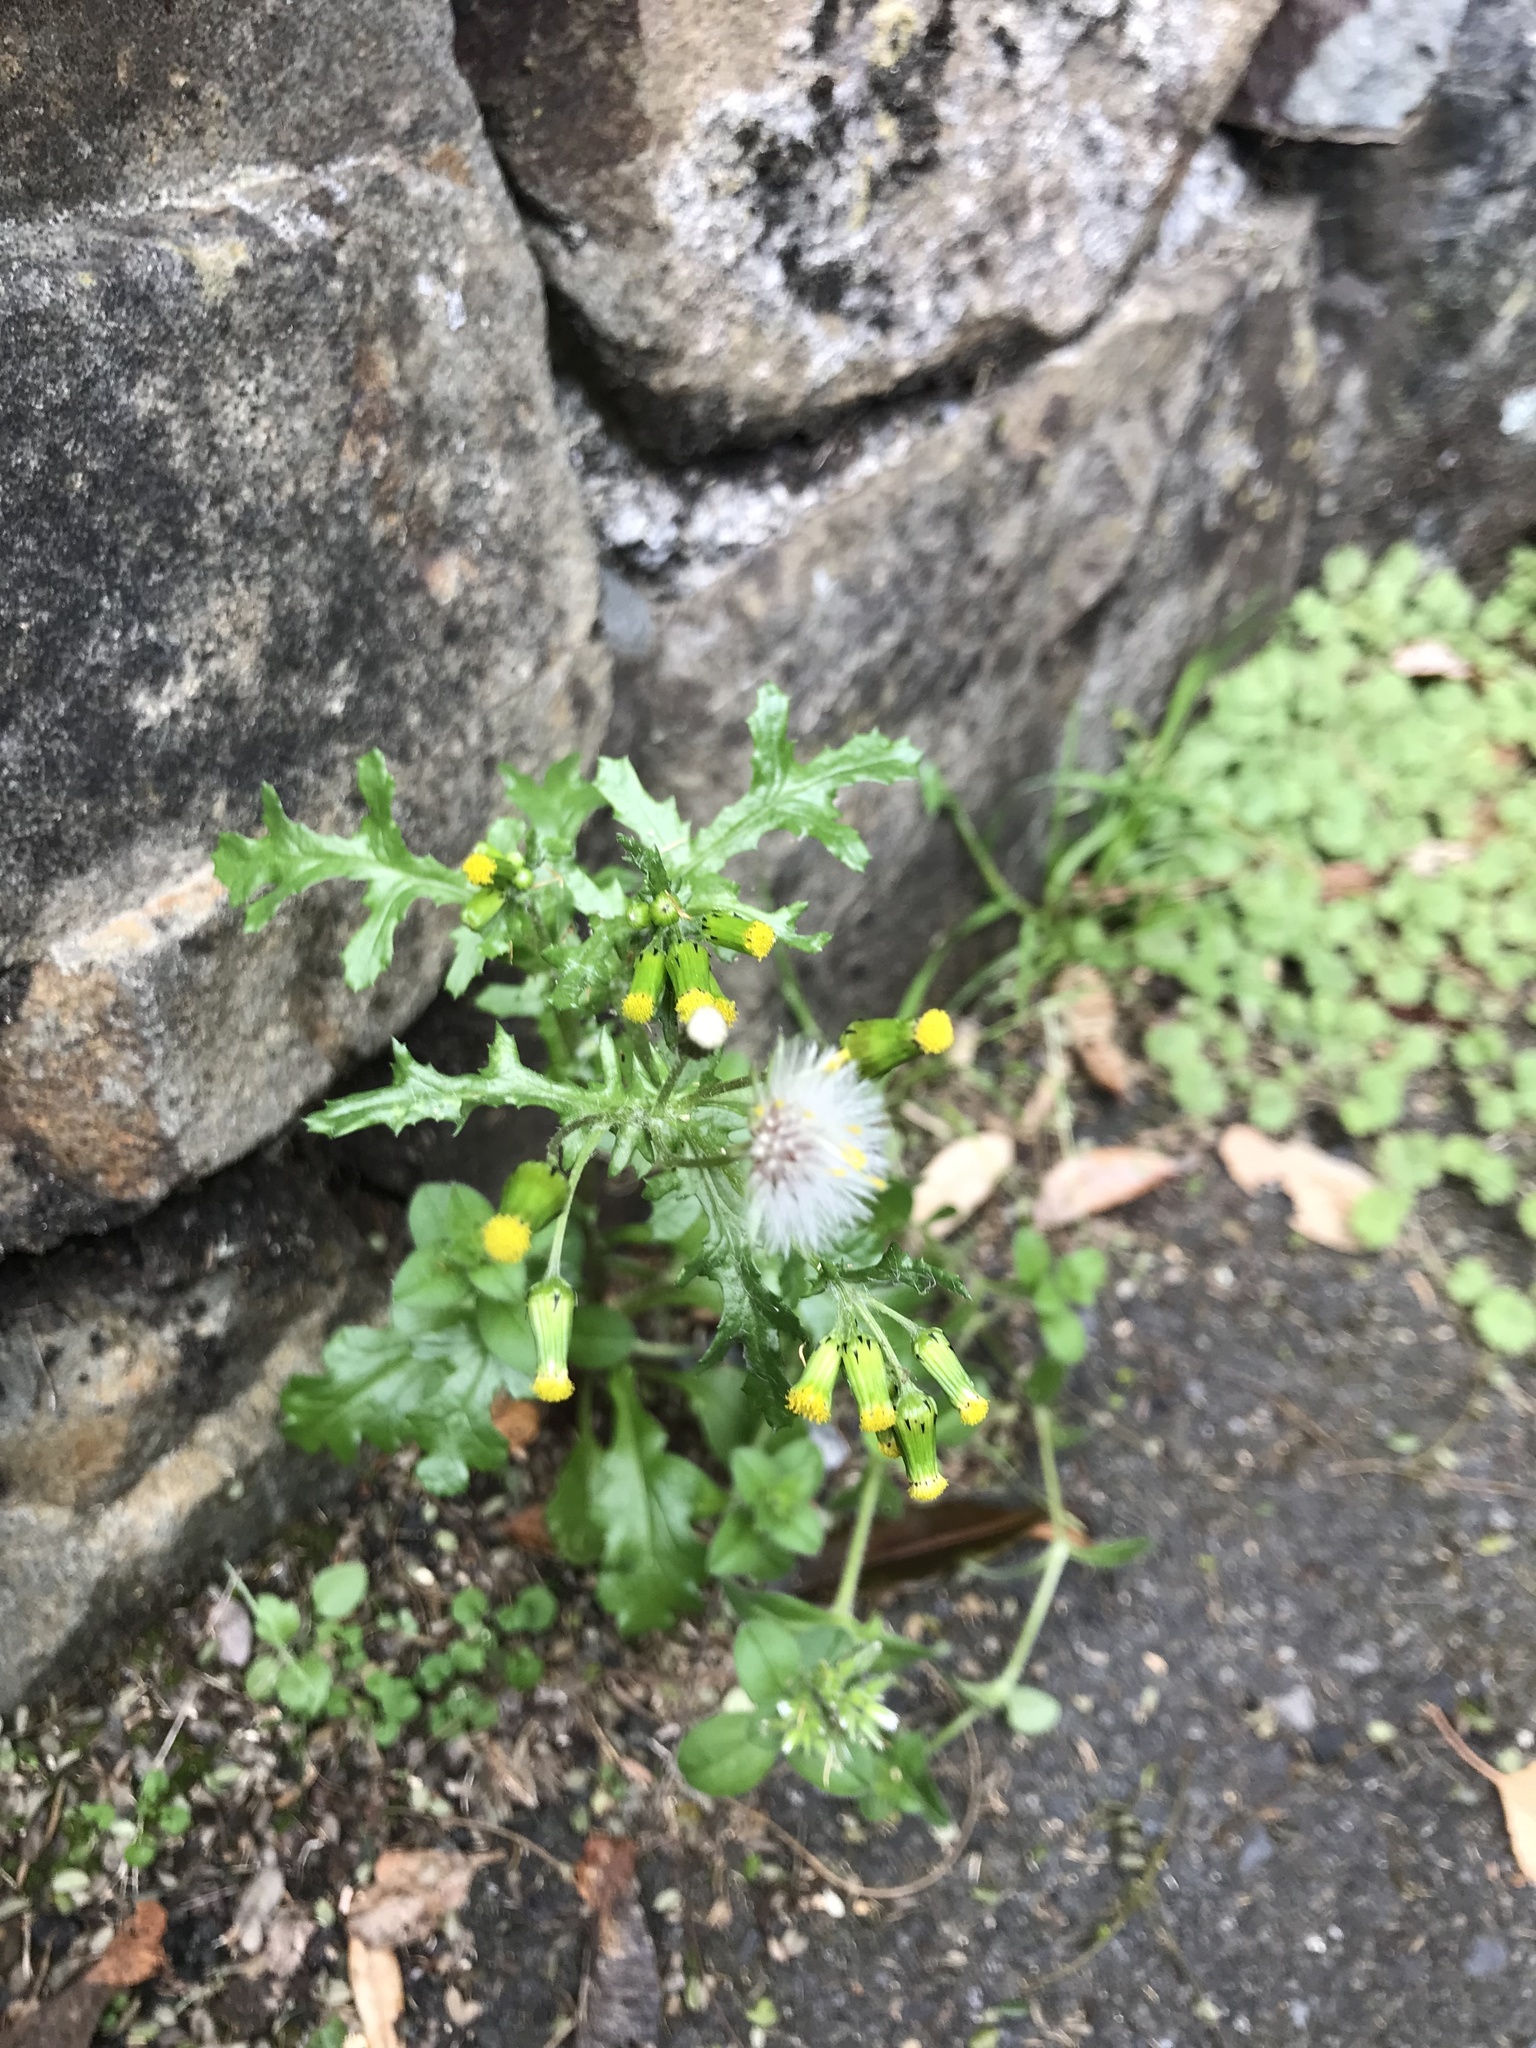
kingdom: Plantae
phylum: Tracheophyta
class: Magnoliopsida
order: Asterales
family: Asteraceae
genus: Senecio
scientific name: Senecio vulgaris
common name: Old-man-in-the-spring
